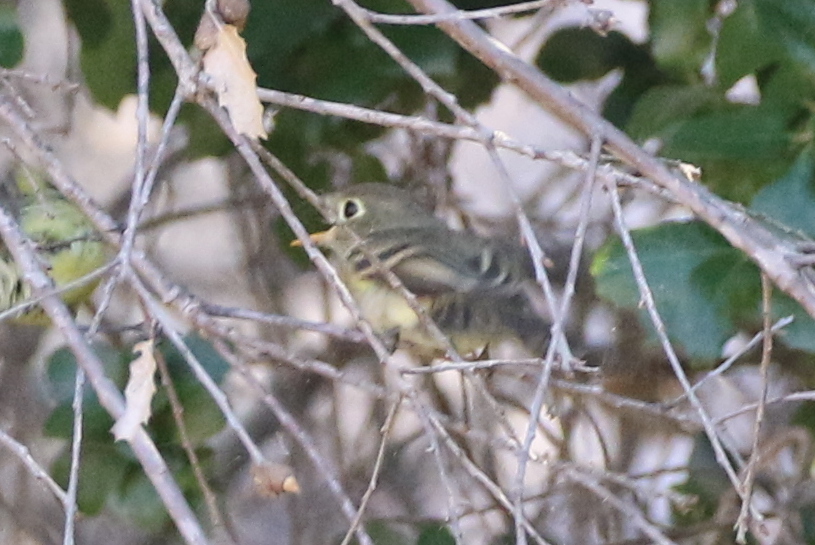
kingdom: Animalia
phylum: Chordata
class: Aves
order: Passeriformes
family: Tyrannidae
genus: Empidonax
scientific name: Empidonax difficilis
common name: Pacific-slope flycatcher
